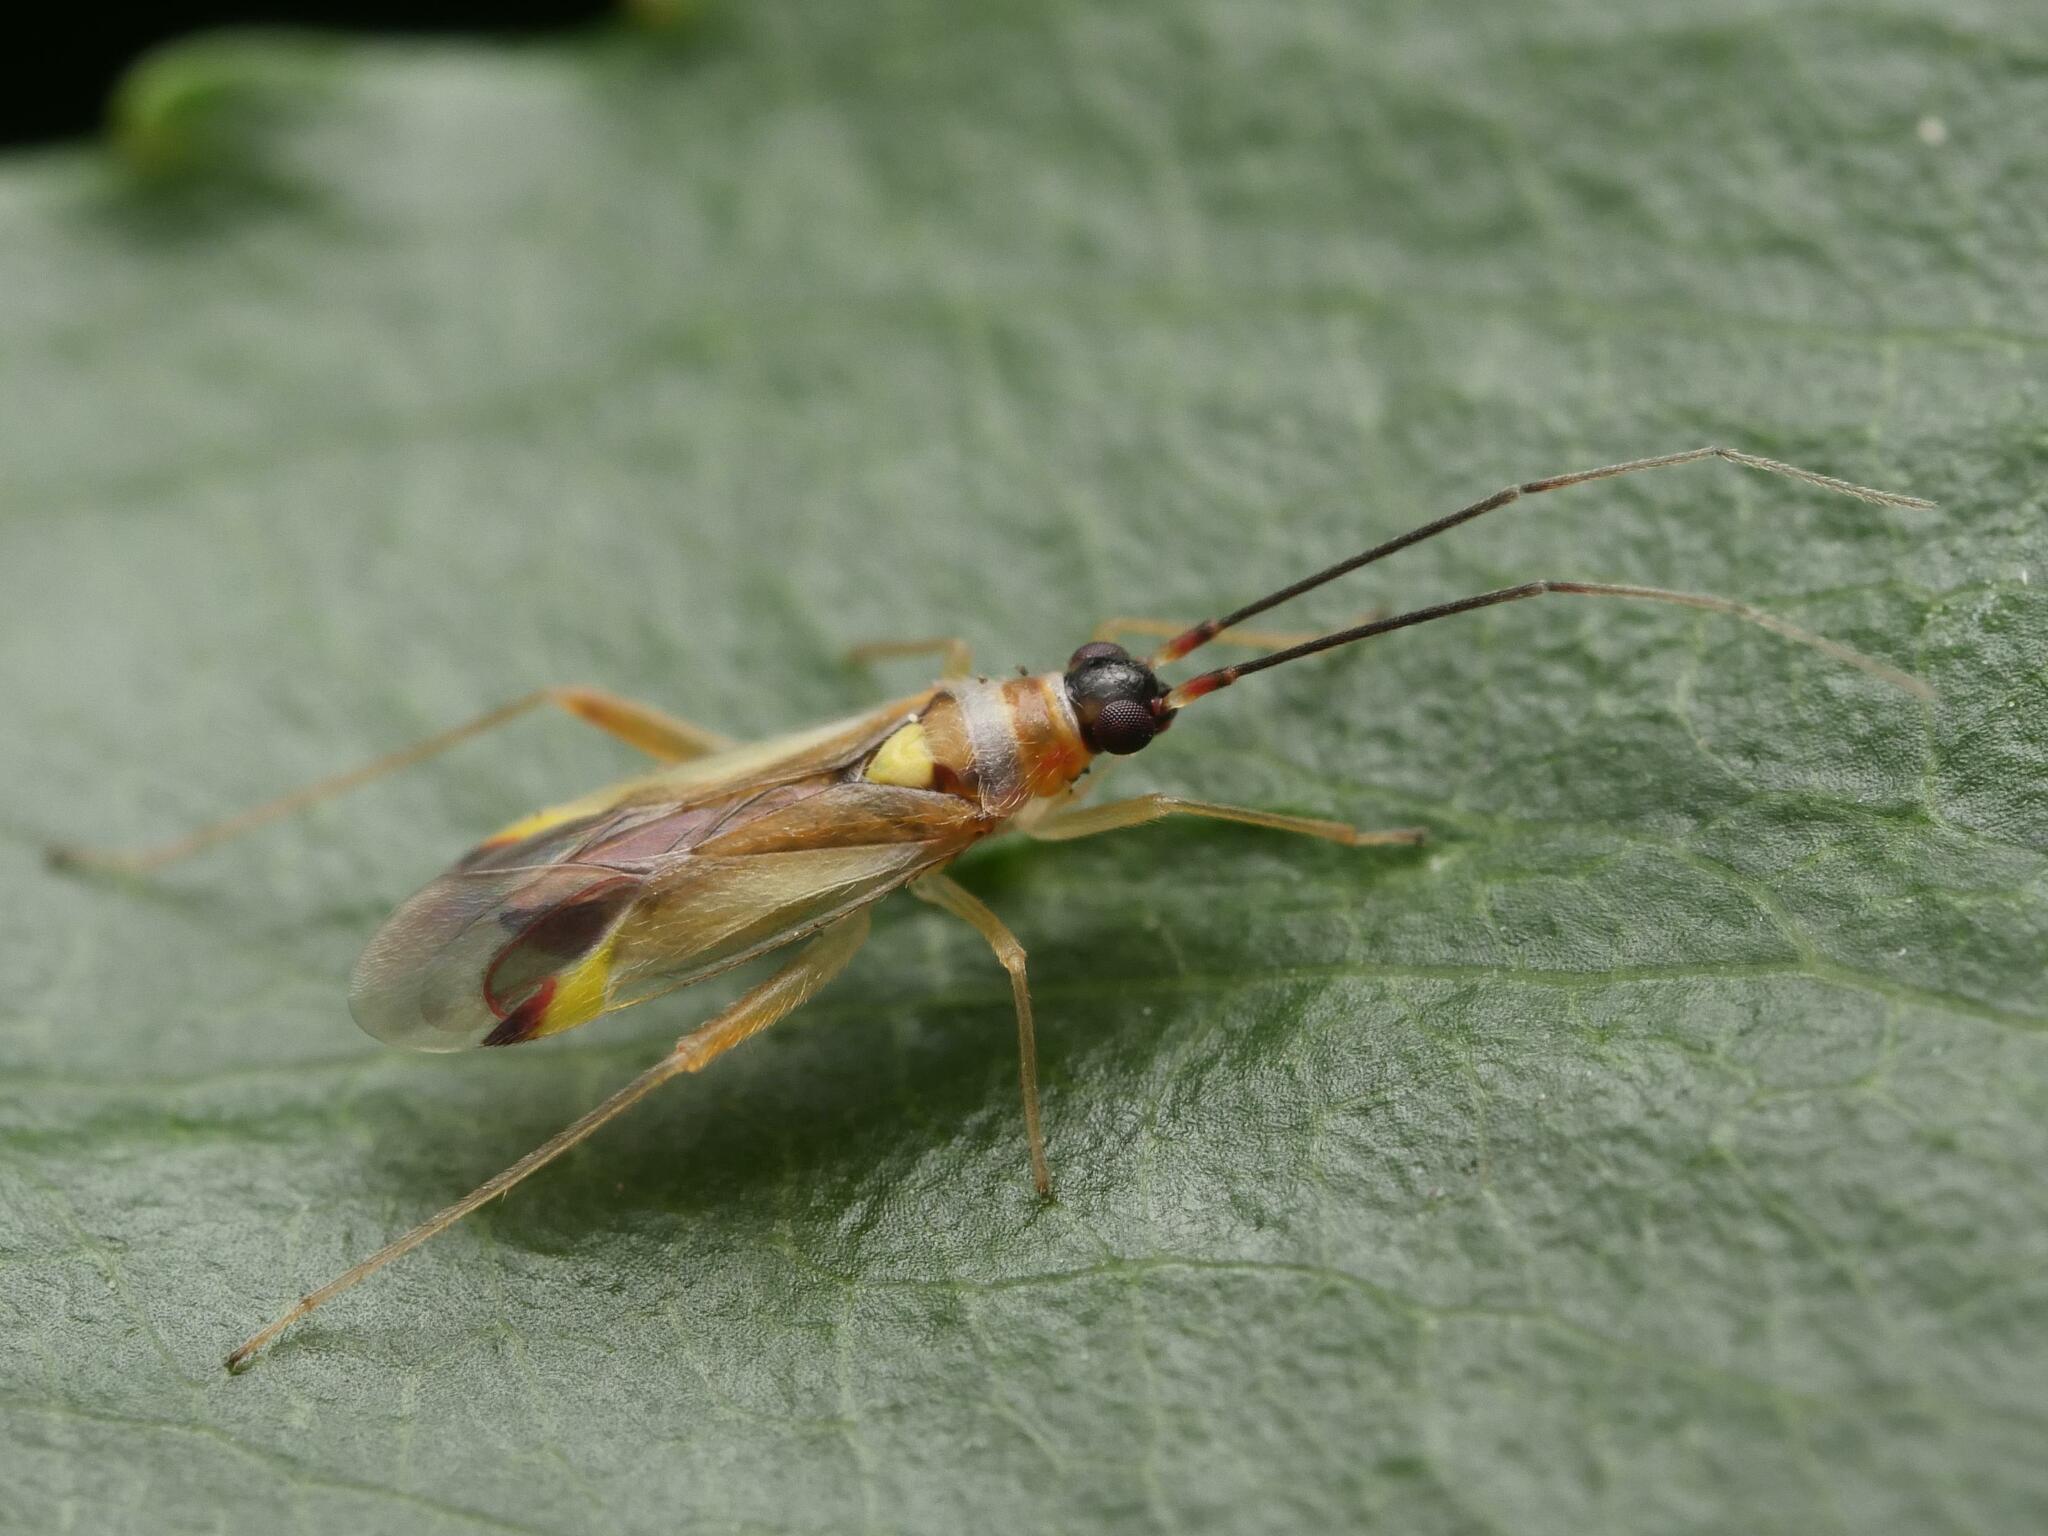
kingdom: Animalia
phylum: Arthropoda
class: Insecta
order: Hemiptera
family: Miridae
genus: Campyloneura
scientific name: Campyloneura virgula
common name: Predatory bug
